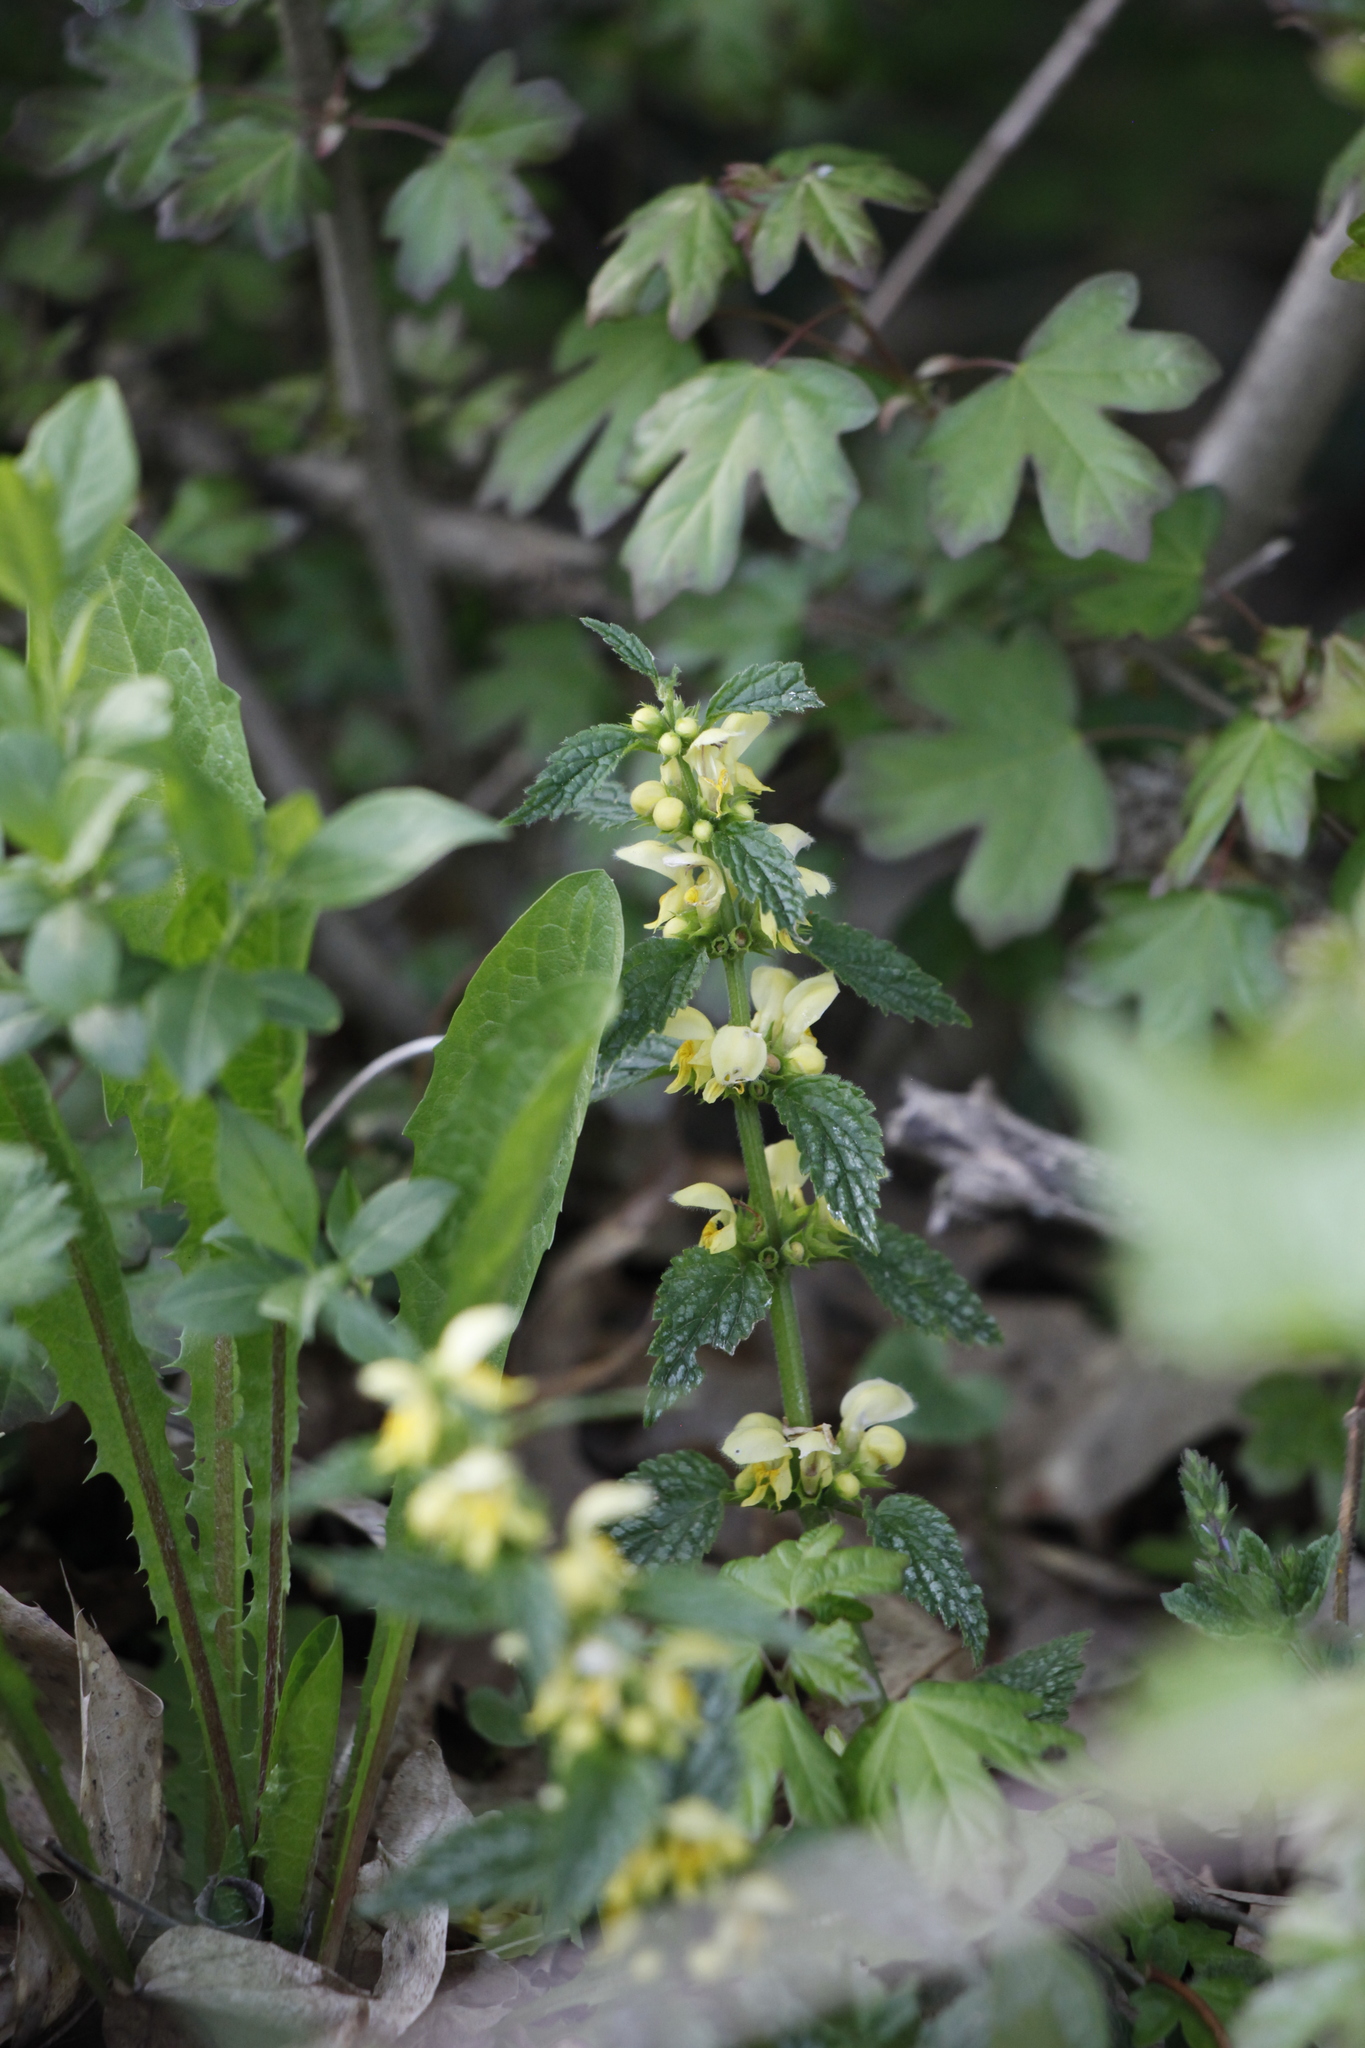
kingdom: Plantae
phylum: Tracheophyta
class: Magnoliopsida
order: Lamiales
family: Lamiaceae
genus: Lamium
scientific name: Lamium galeobdolon
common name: Yellow archangel
